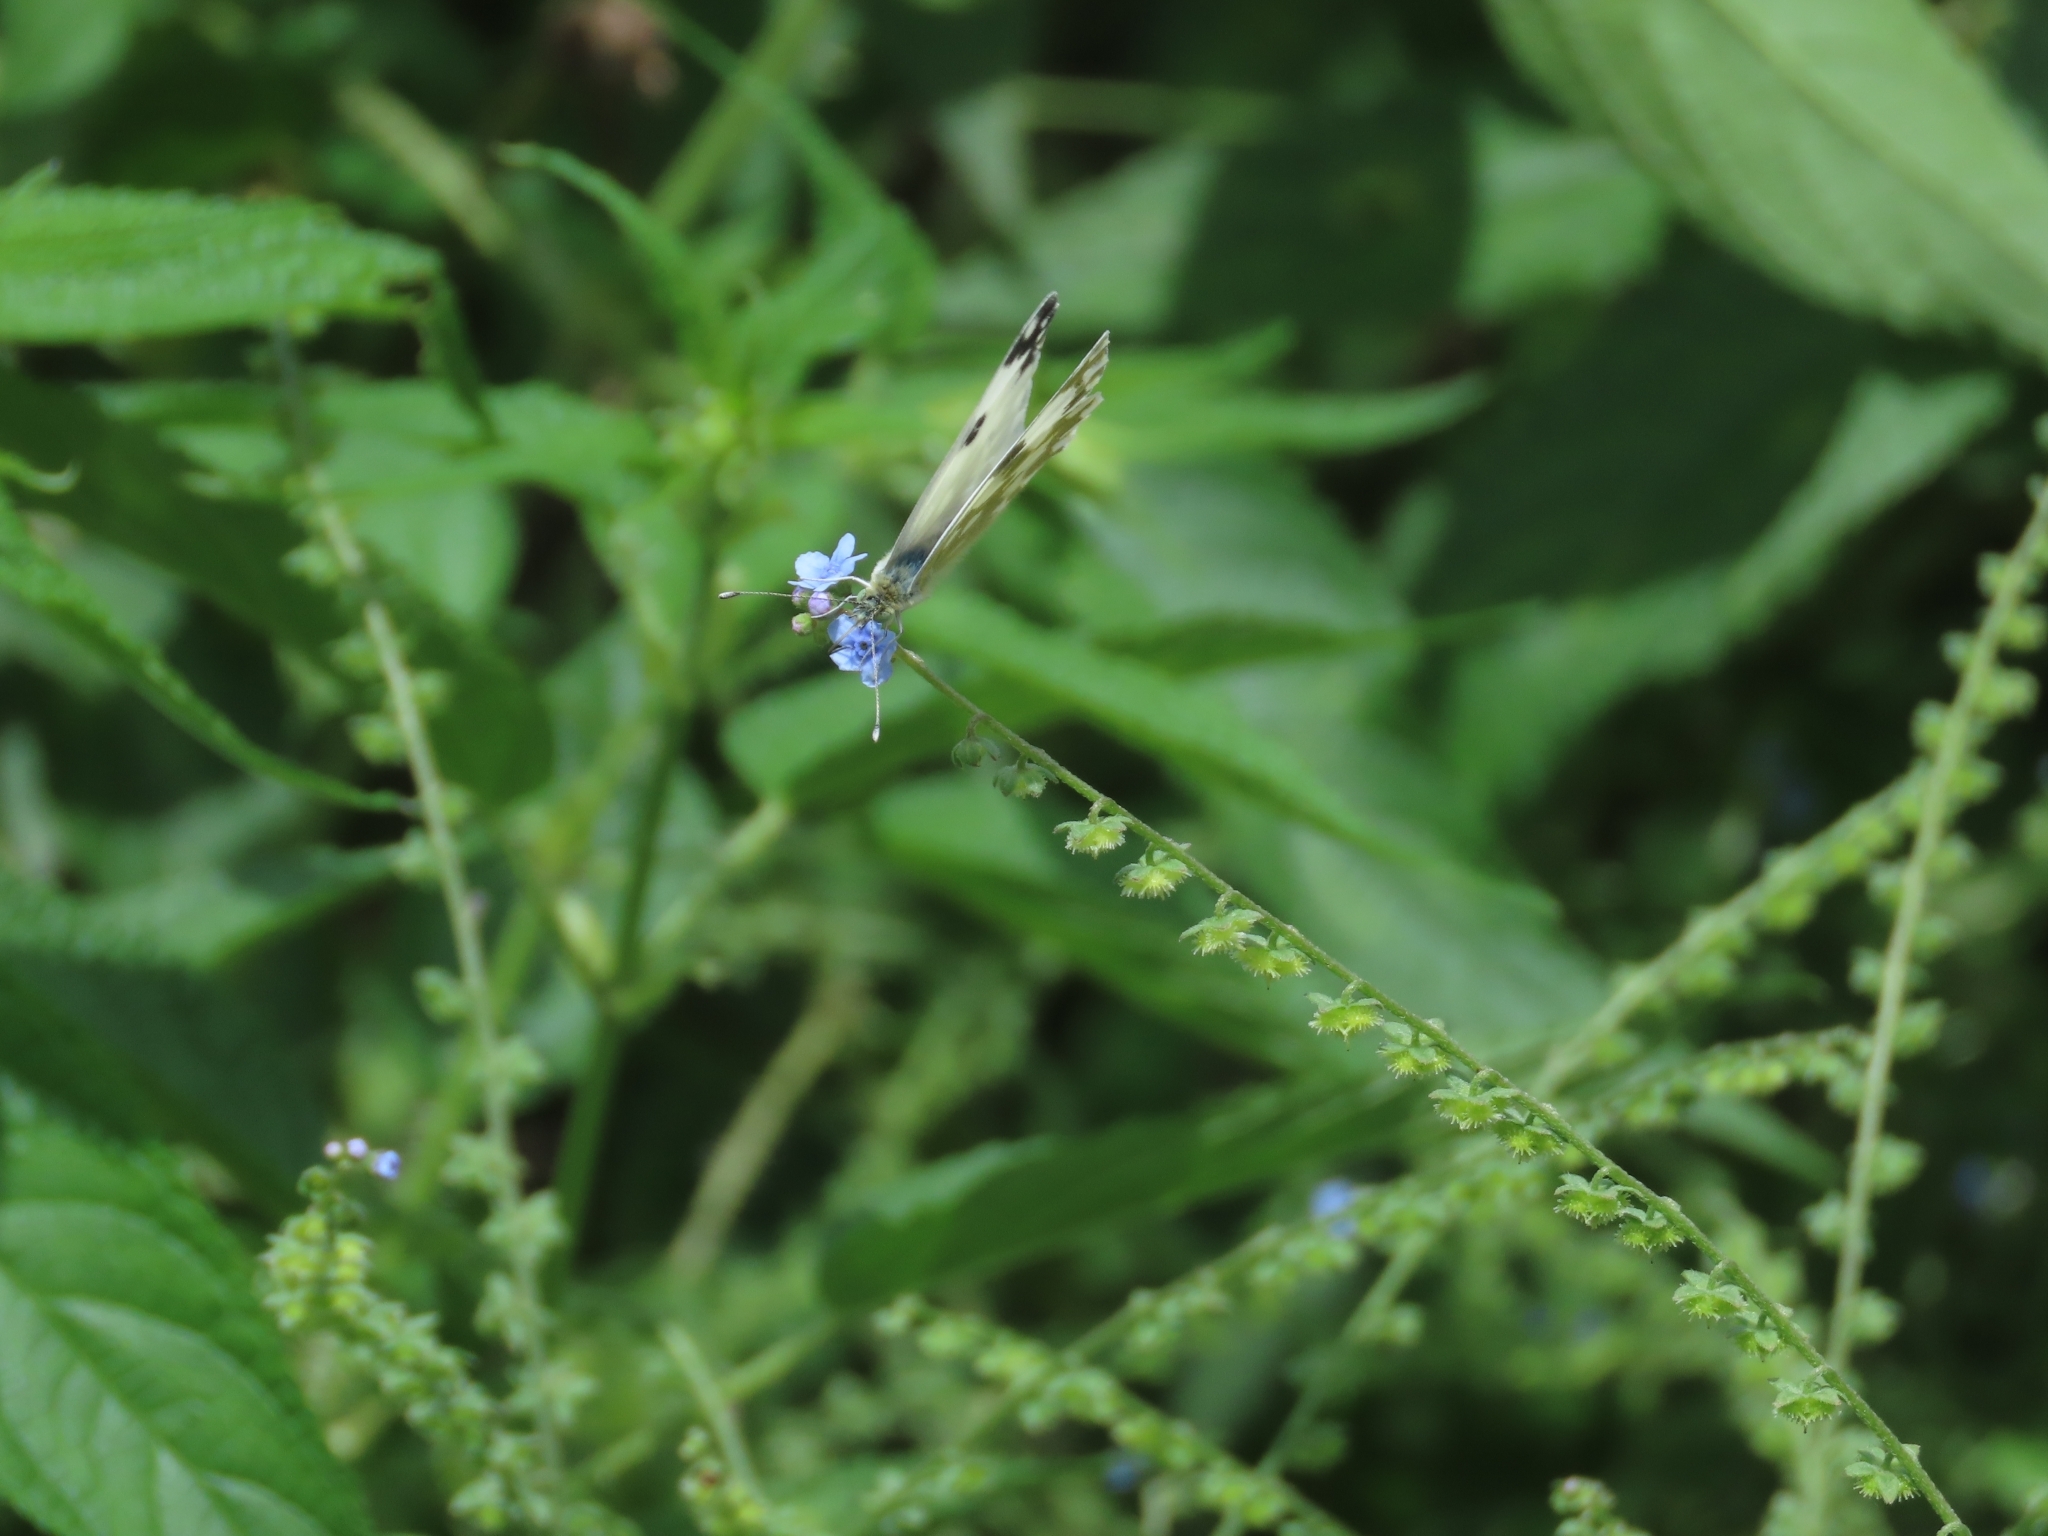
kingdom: Animalia
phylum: Arthropoda
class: Insecta
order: Lepidoptera
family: Pieridae
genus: Pontia
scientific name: Pontia edusa
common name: Eastern bath white
